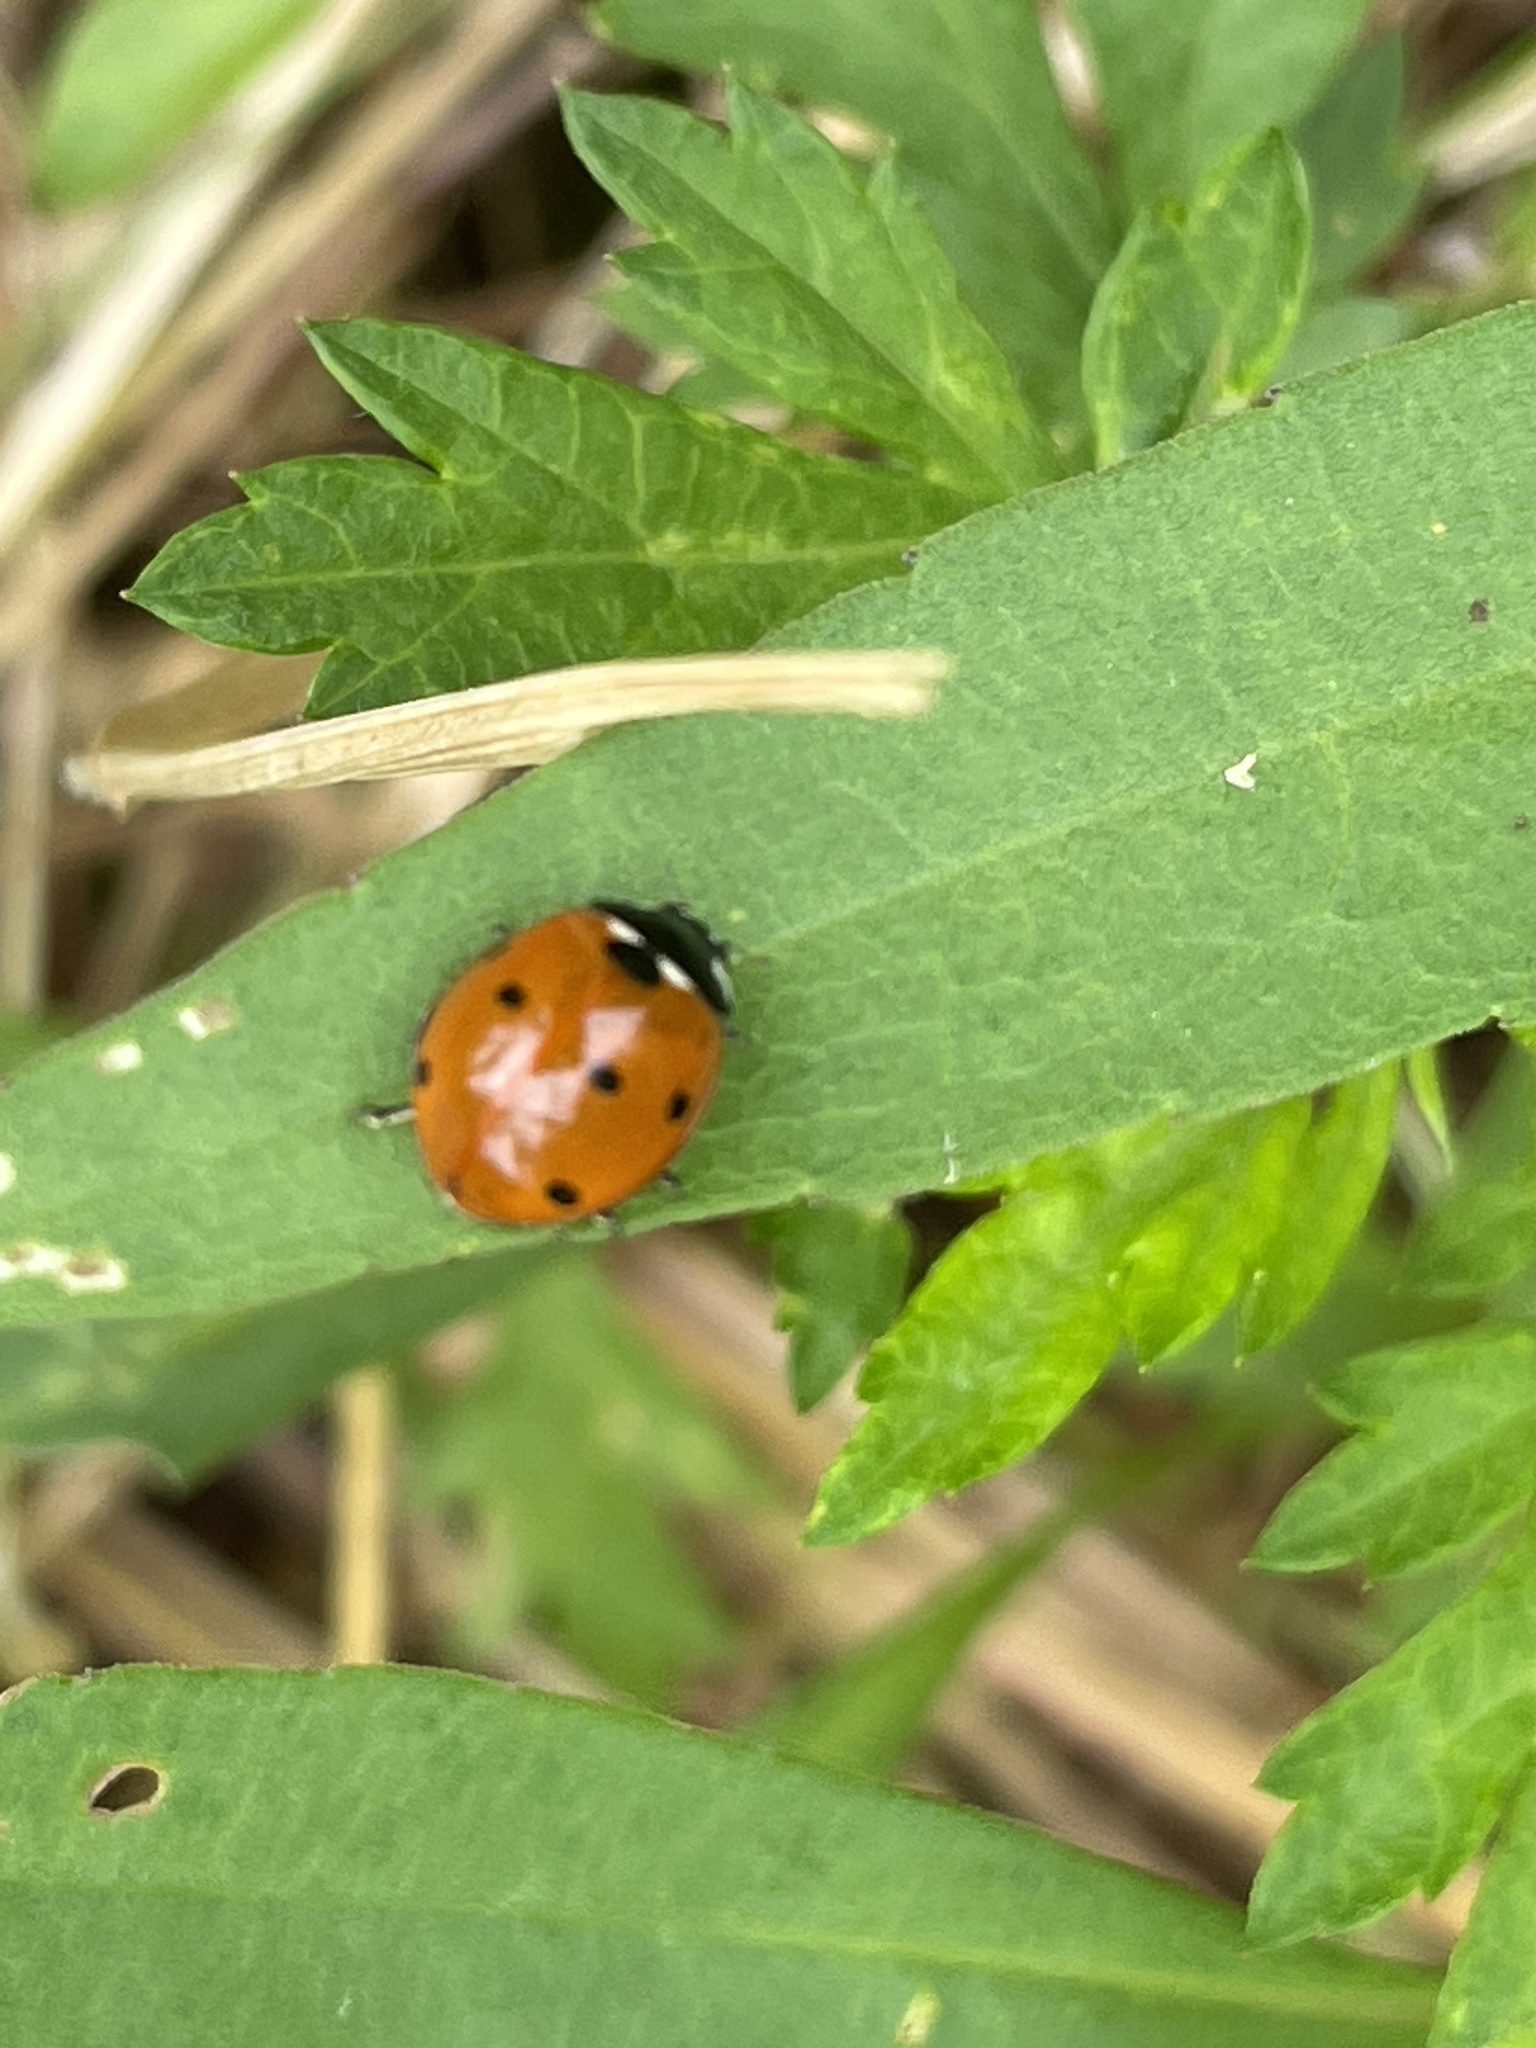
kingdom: Animalia
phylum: Arthropoda
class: Insecta
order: Coleoptera
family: Coccinellidae
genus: Coccinella
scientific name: Coccinella septempunctata
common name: Sevenspotted lady beetle
